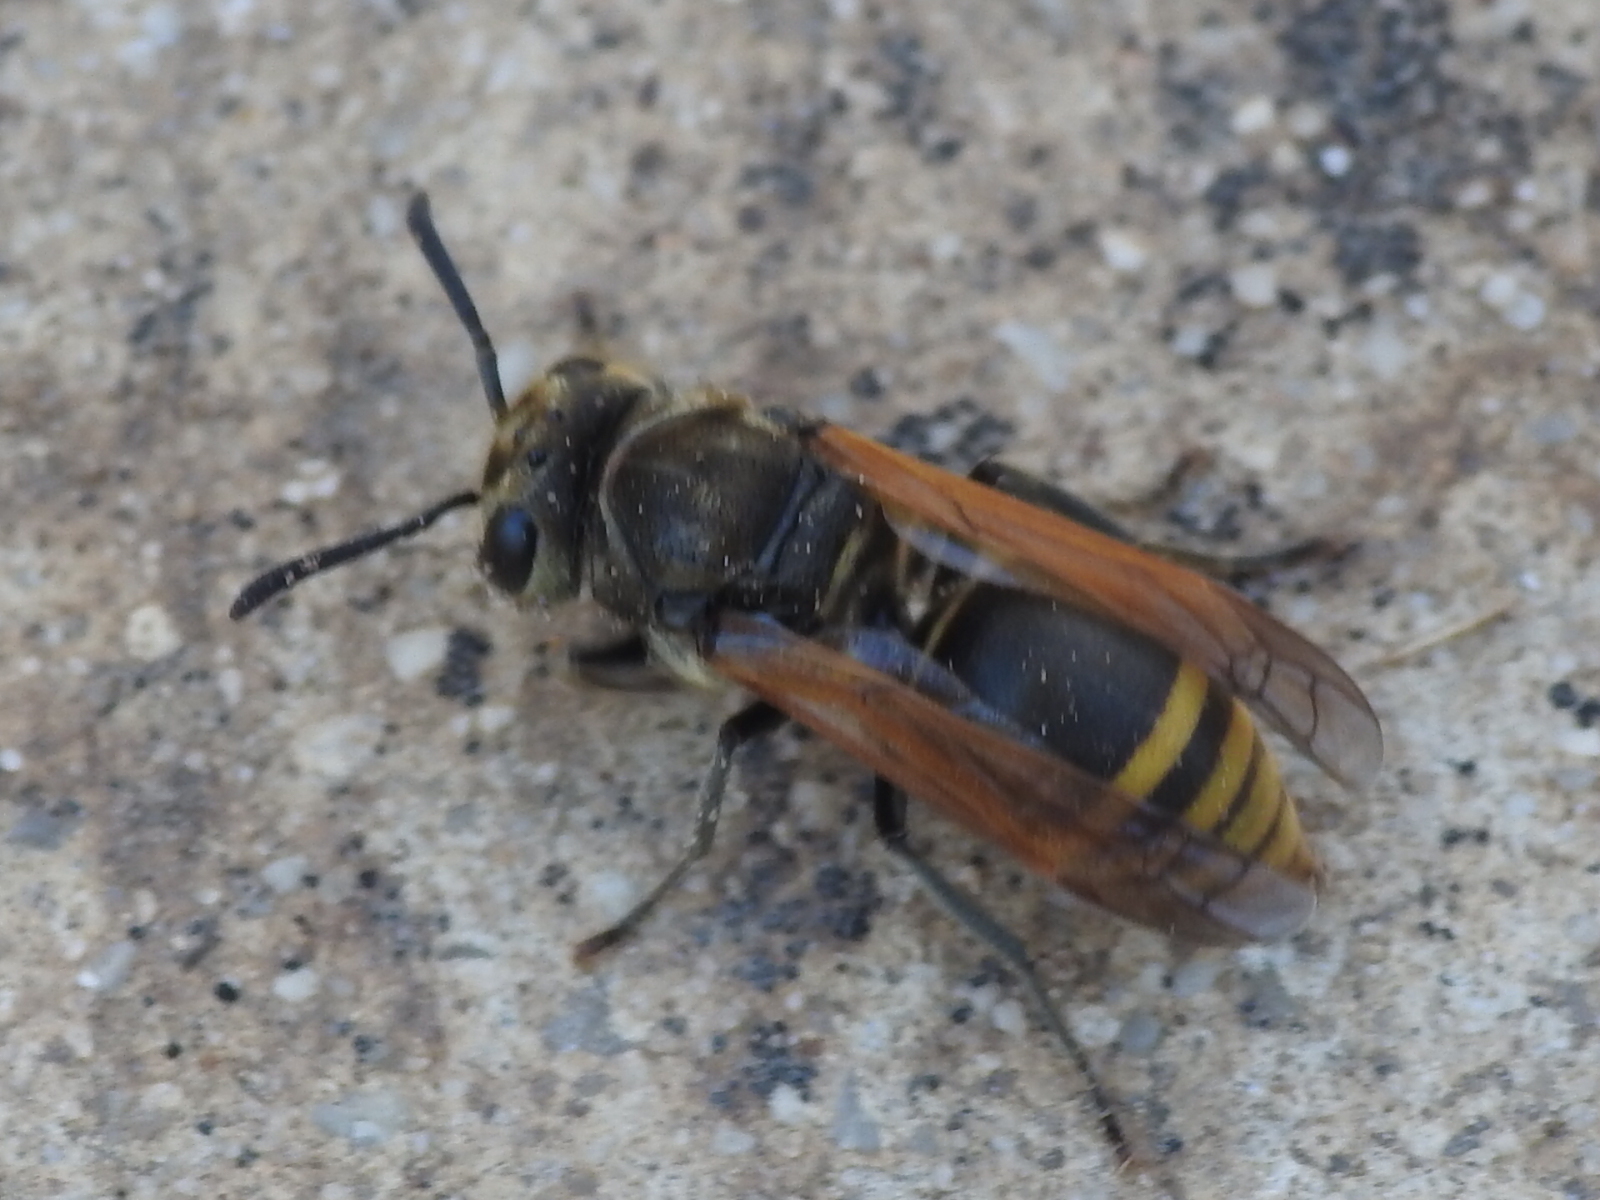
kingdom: Animalia
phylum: Arthropoda
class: Insecta
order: Hymenoptera
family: Vespidae
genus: Brachygastra
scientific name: Brachygastra mellifica
